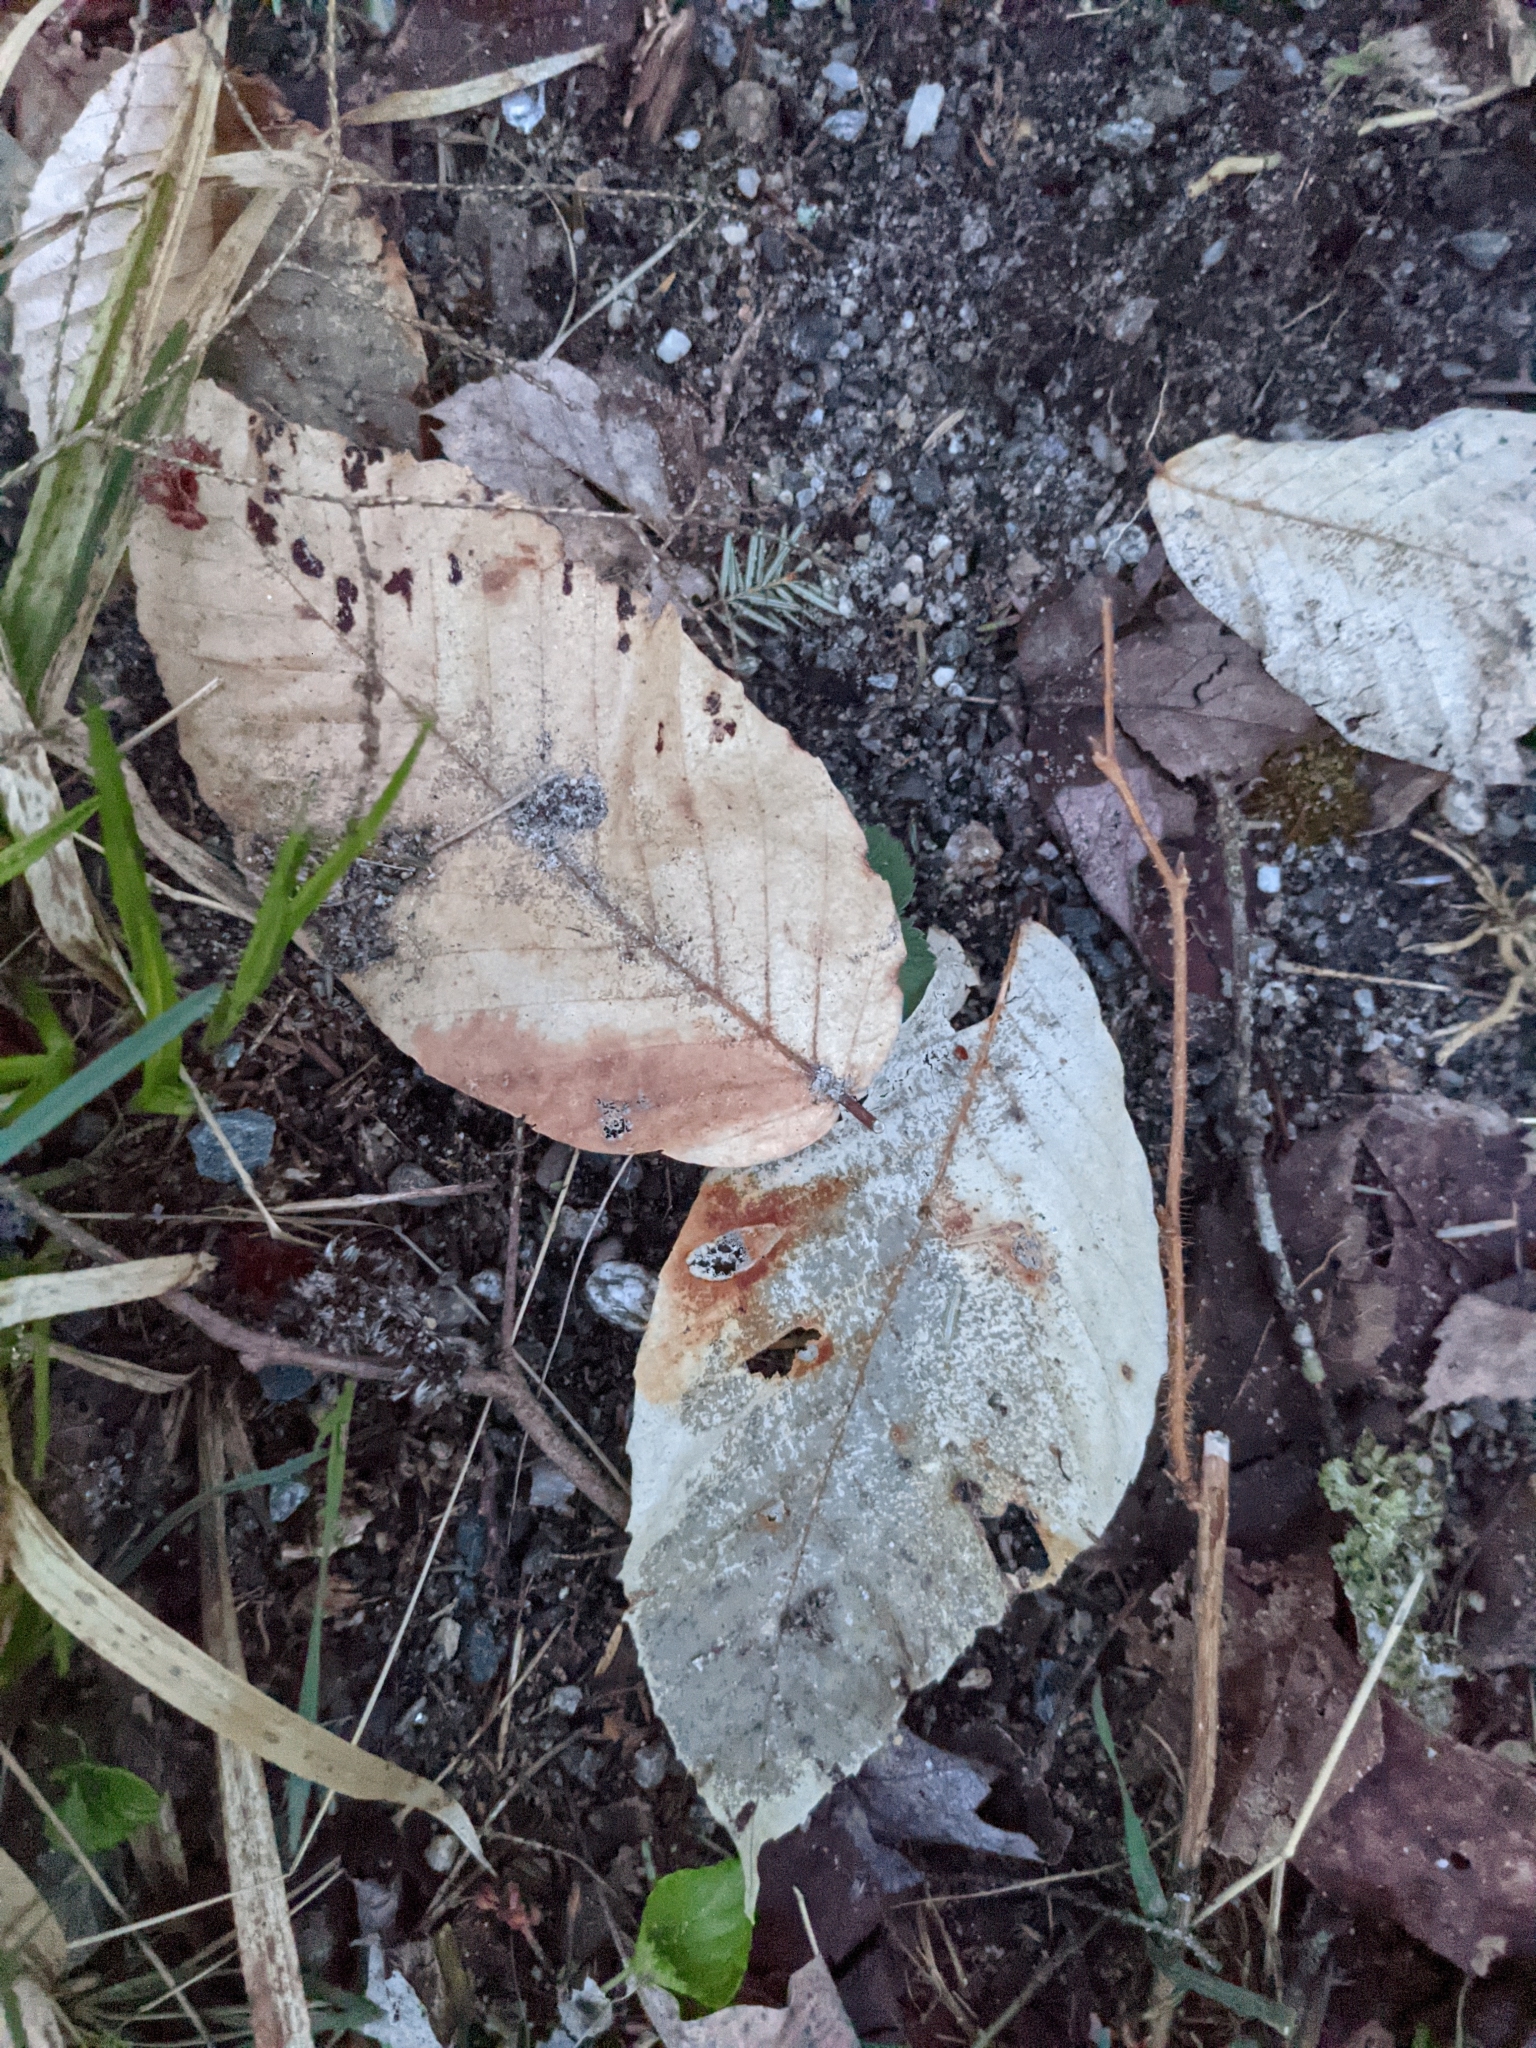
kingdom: Plantae
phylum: Tracheophyta
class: Magnoliopsida
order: Fagales
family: Fagaceae
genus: Fagus
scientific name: Fagus grandifolia
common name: American beech
